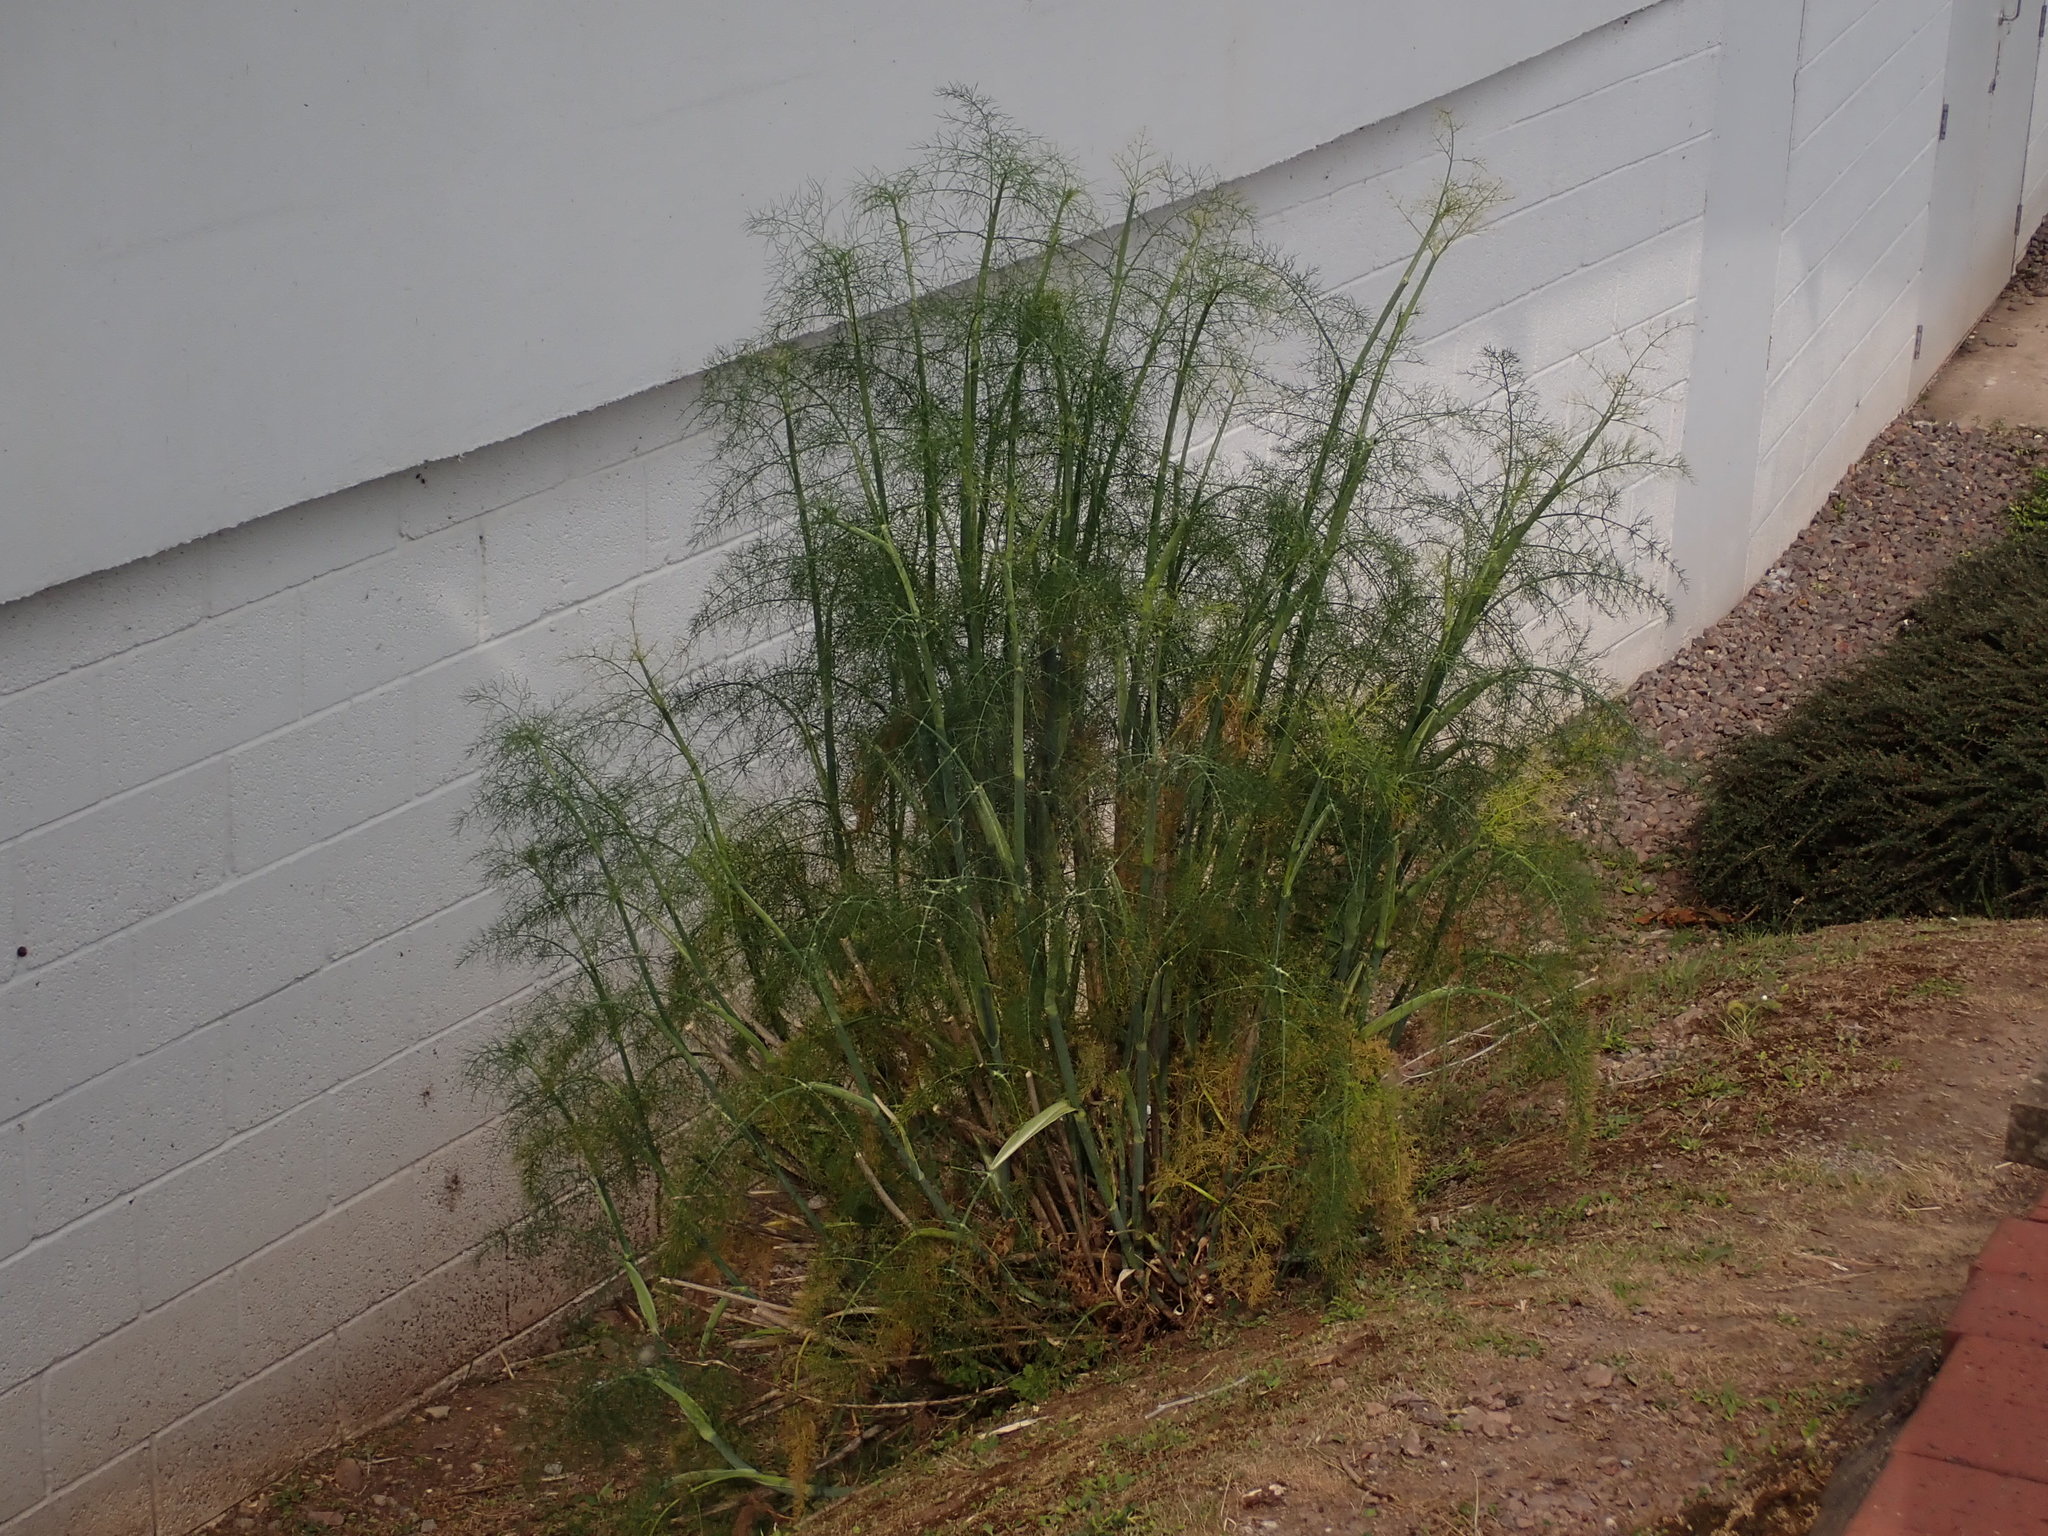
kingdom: Plantae
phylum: Tracheophyta
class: Magnoliopsida
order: Apiales
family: Apiaceae
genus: Foeniculum
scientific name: Foeniculum vulgare
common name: Fennel
